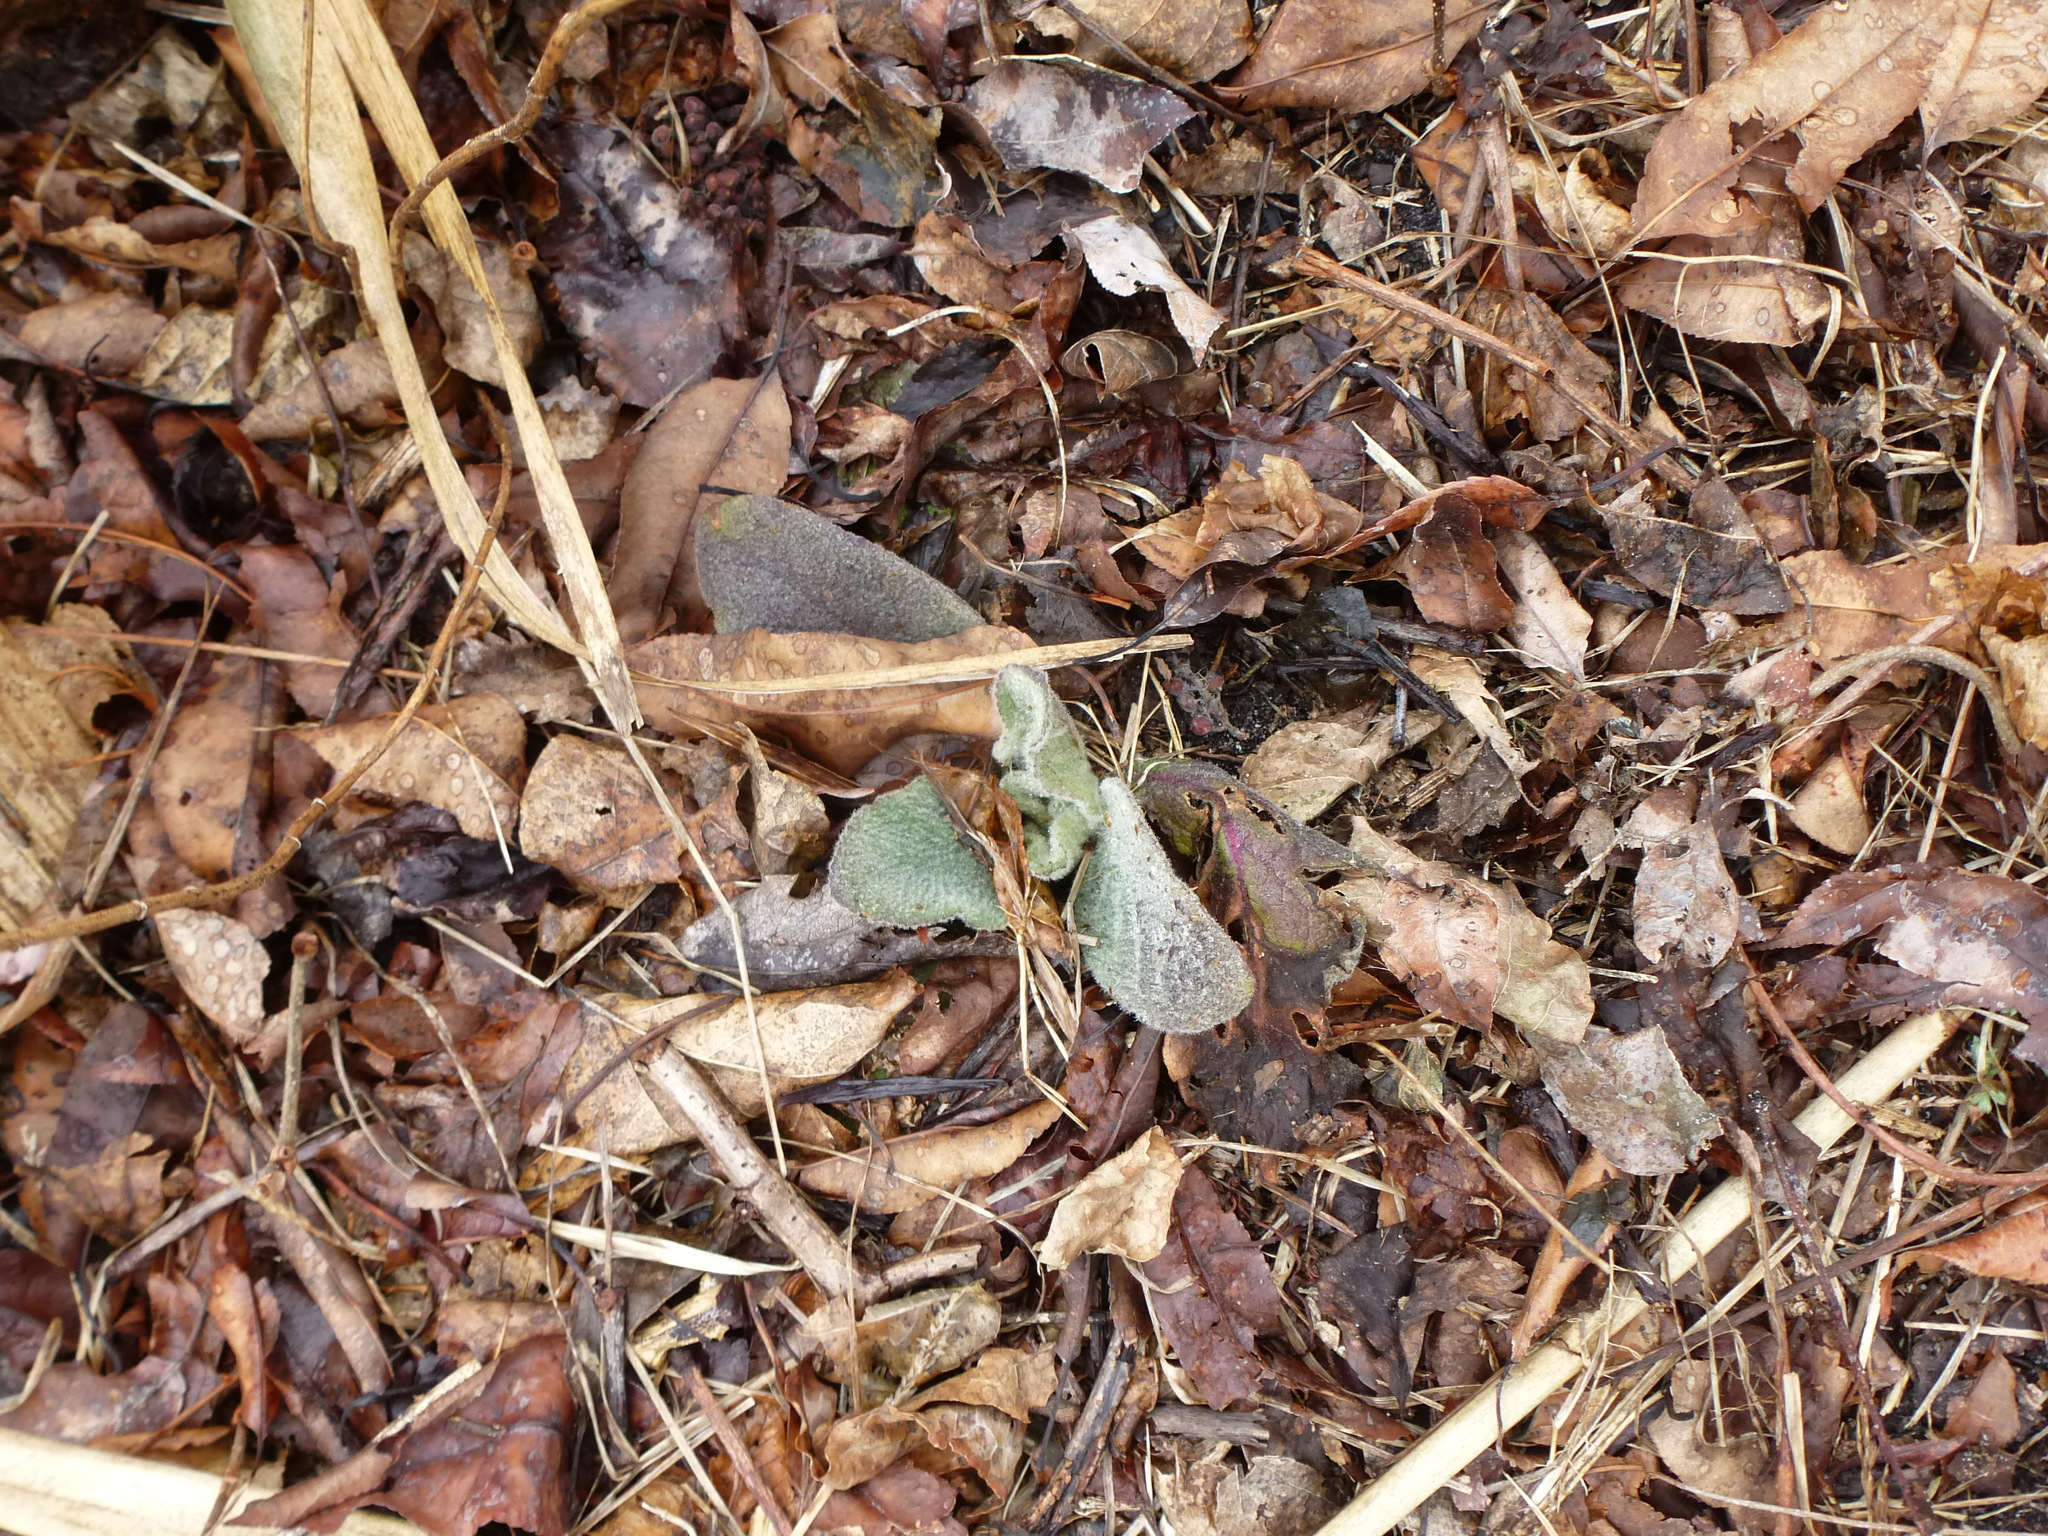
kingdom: Plantae
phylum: Tracheophyta
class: Magnoliopsida
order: Lamiales
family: Scrophulariaceae
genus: Verbascum
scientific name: Verbascum thapsus
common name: Common mullein
